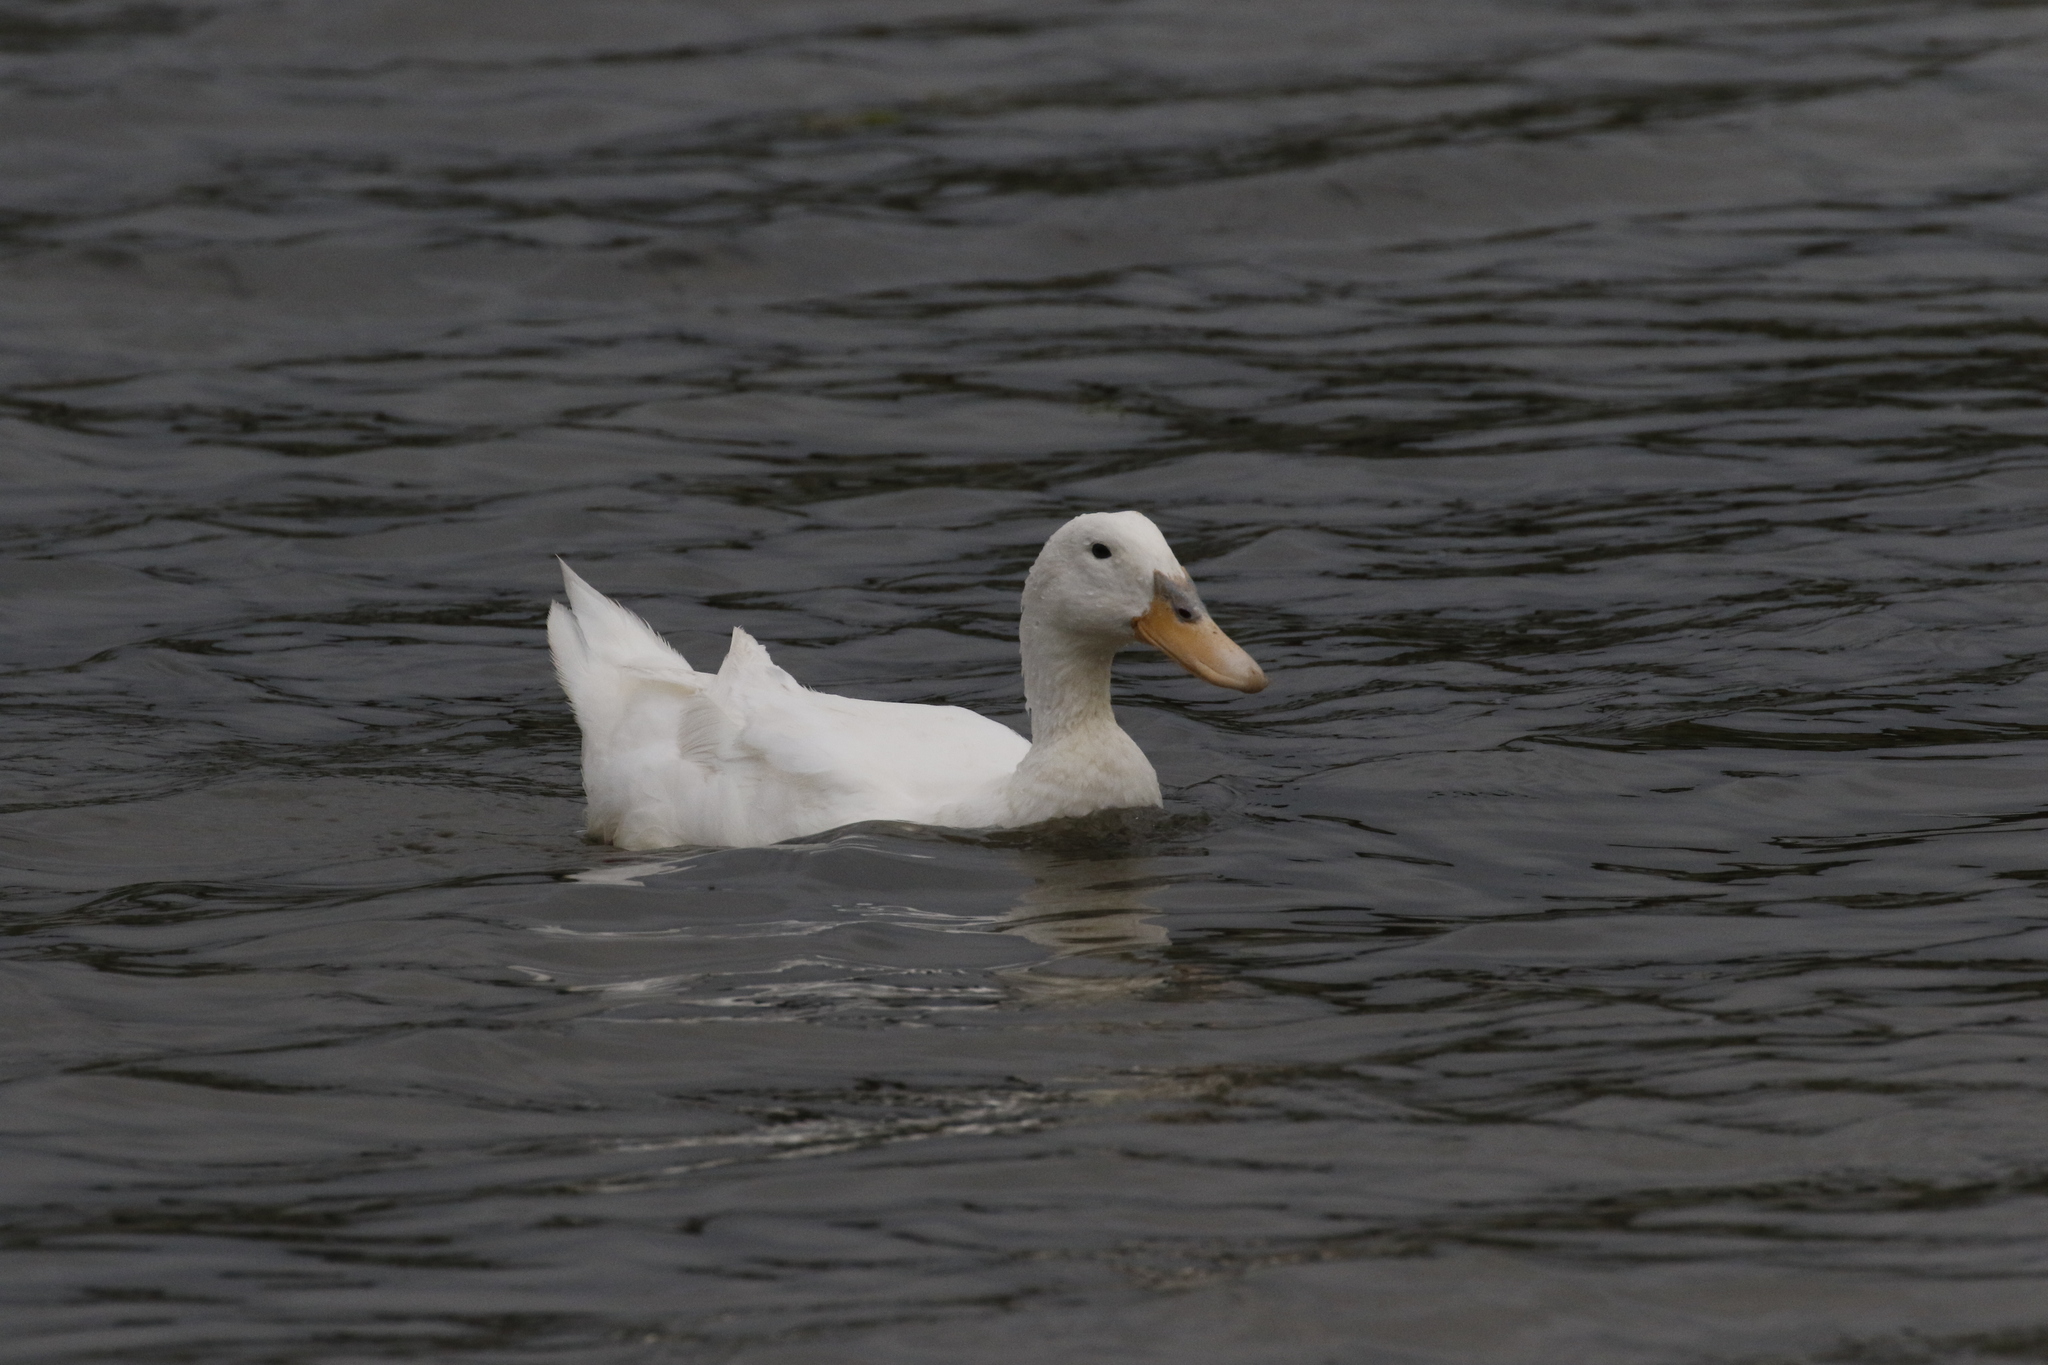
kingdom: Animalia
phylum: Chordata
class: Aves
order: Anseriformes
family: Anatidae
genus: Anas
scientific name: Anas platyrhynchos
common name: Mallard
